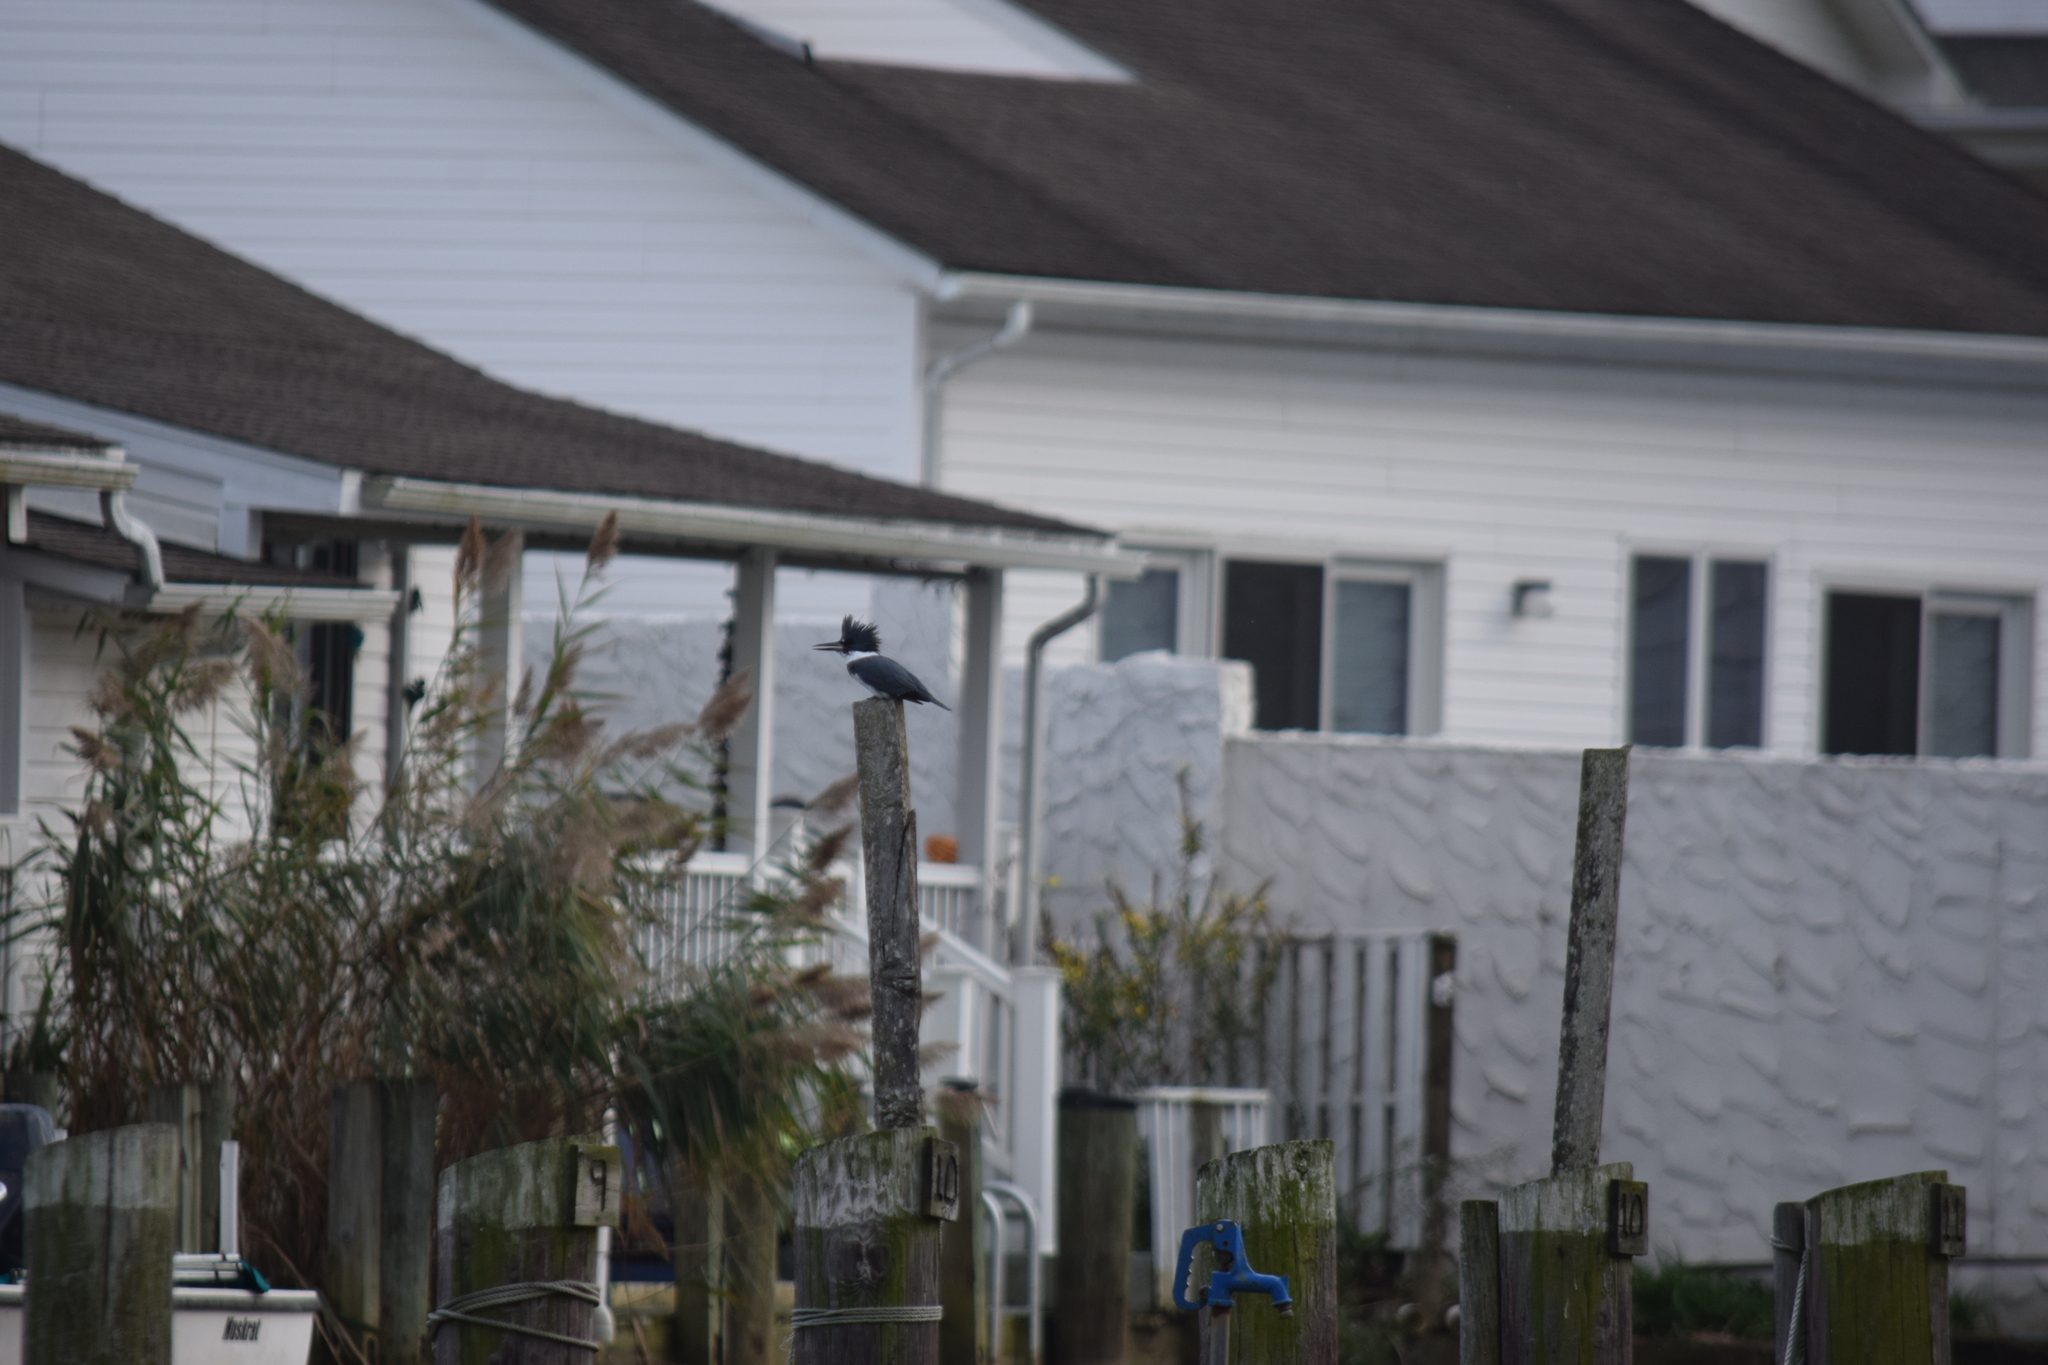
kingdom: Animalia
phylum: Chordata
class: Aves
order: Coraciiformes
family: Alcedinidae
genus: Megaceryle
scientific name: Megaceryle alcyon
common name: Belted kingfisher
